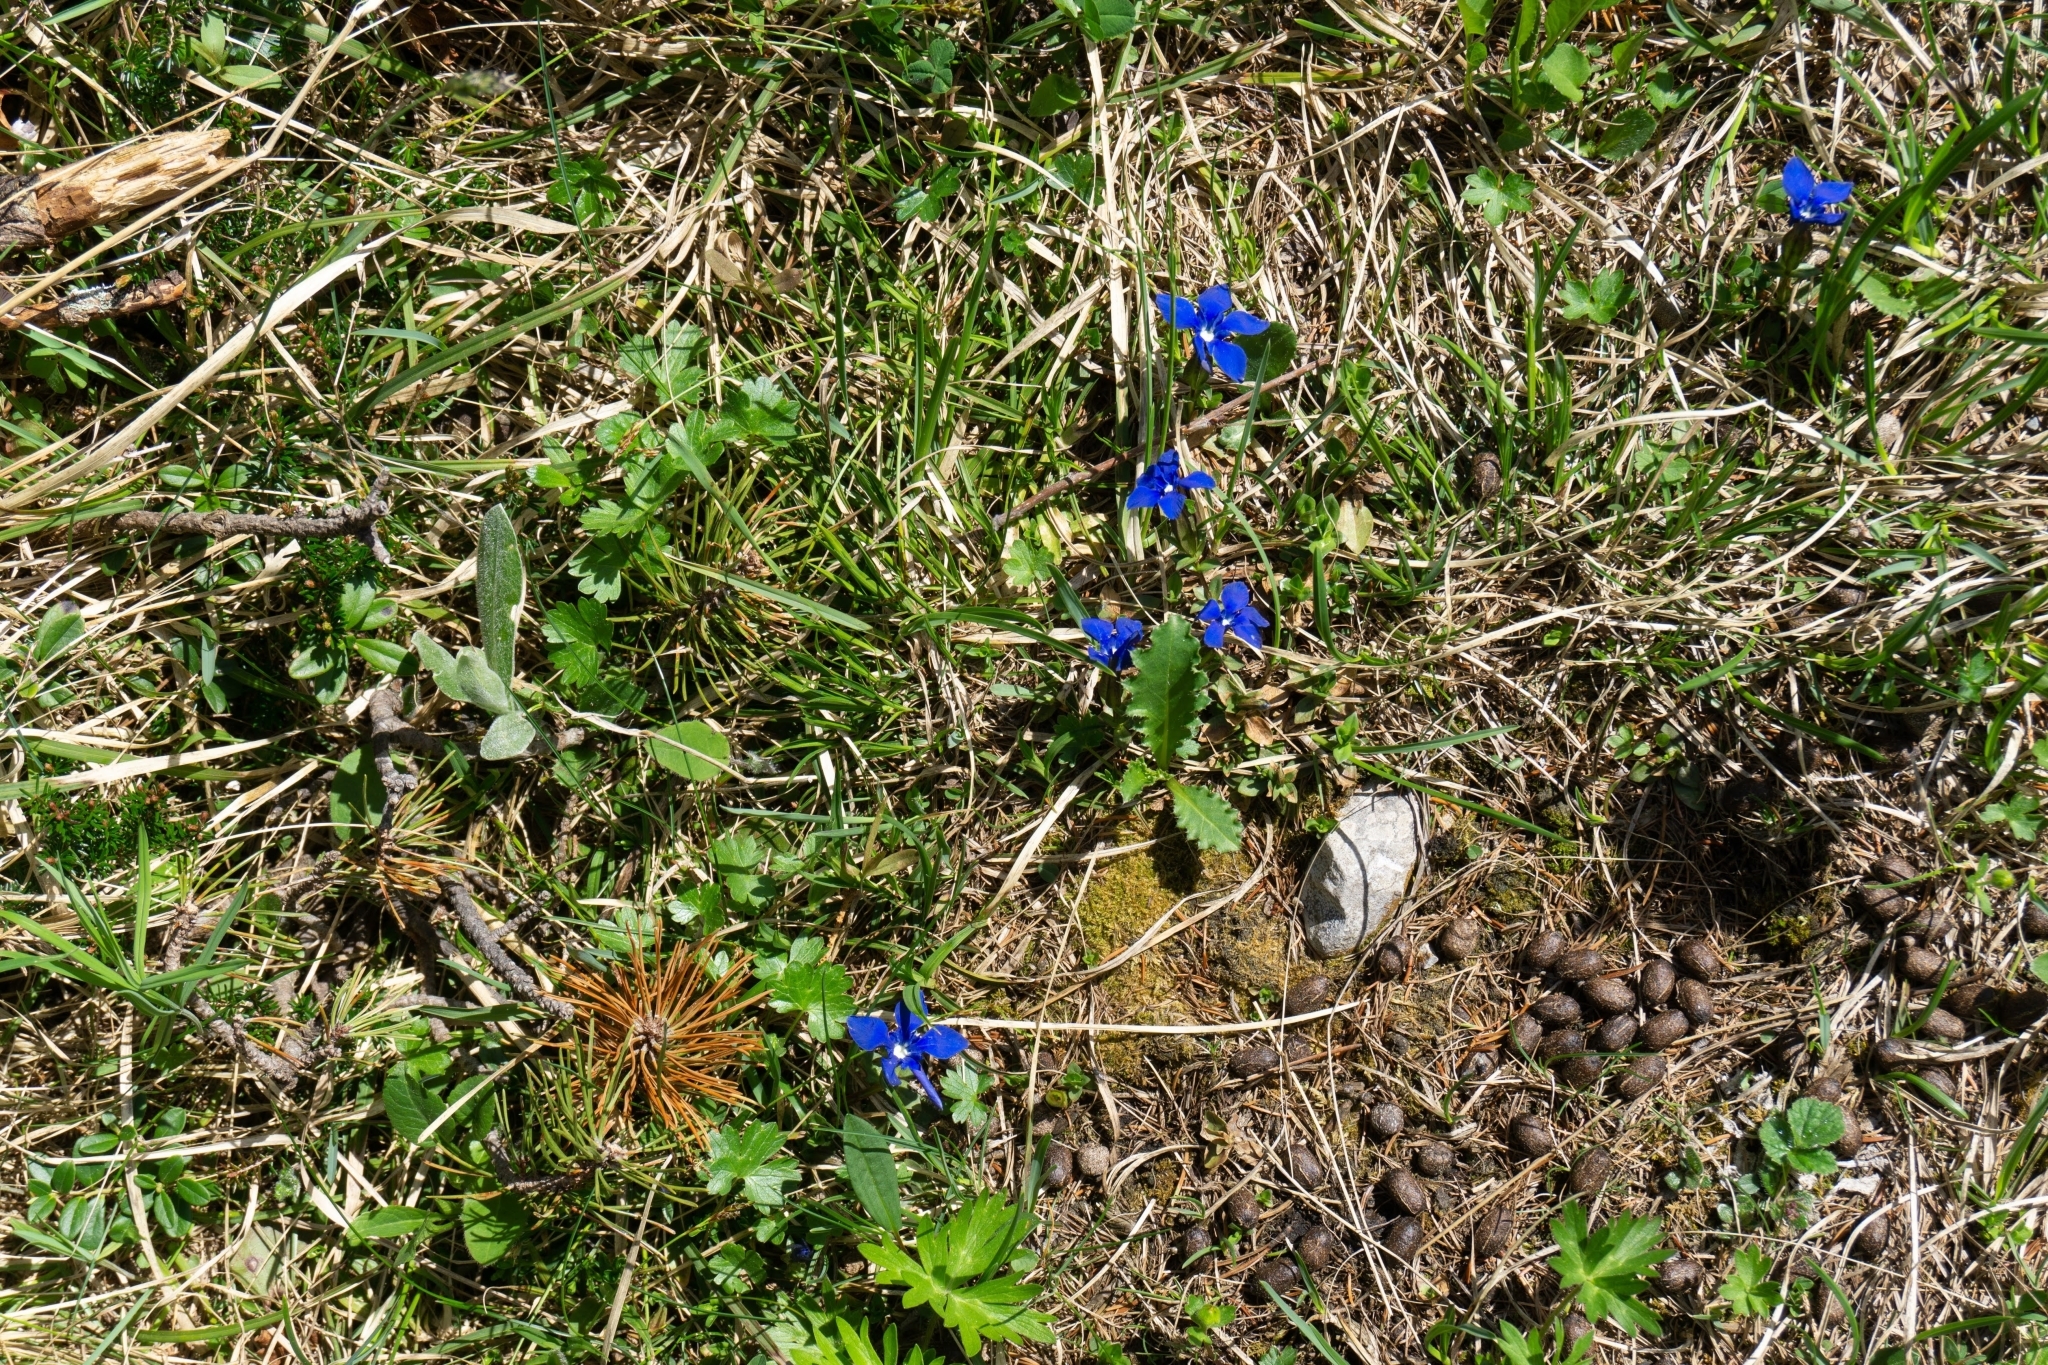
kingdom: Plantae
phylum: Tracheophyta
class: Magnoliopsida
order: Gentianales
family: Gentianaceae
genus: Gentiana
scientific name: Gentiana verna
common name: Spring gentian
